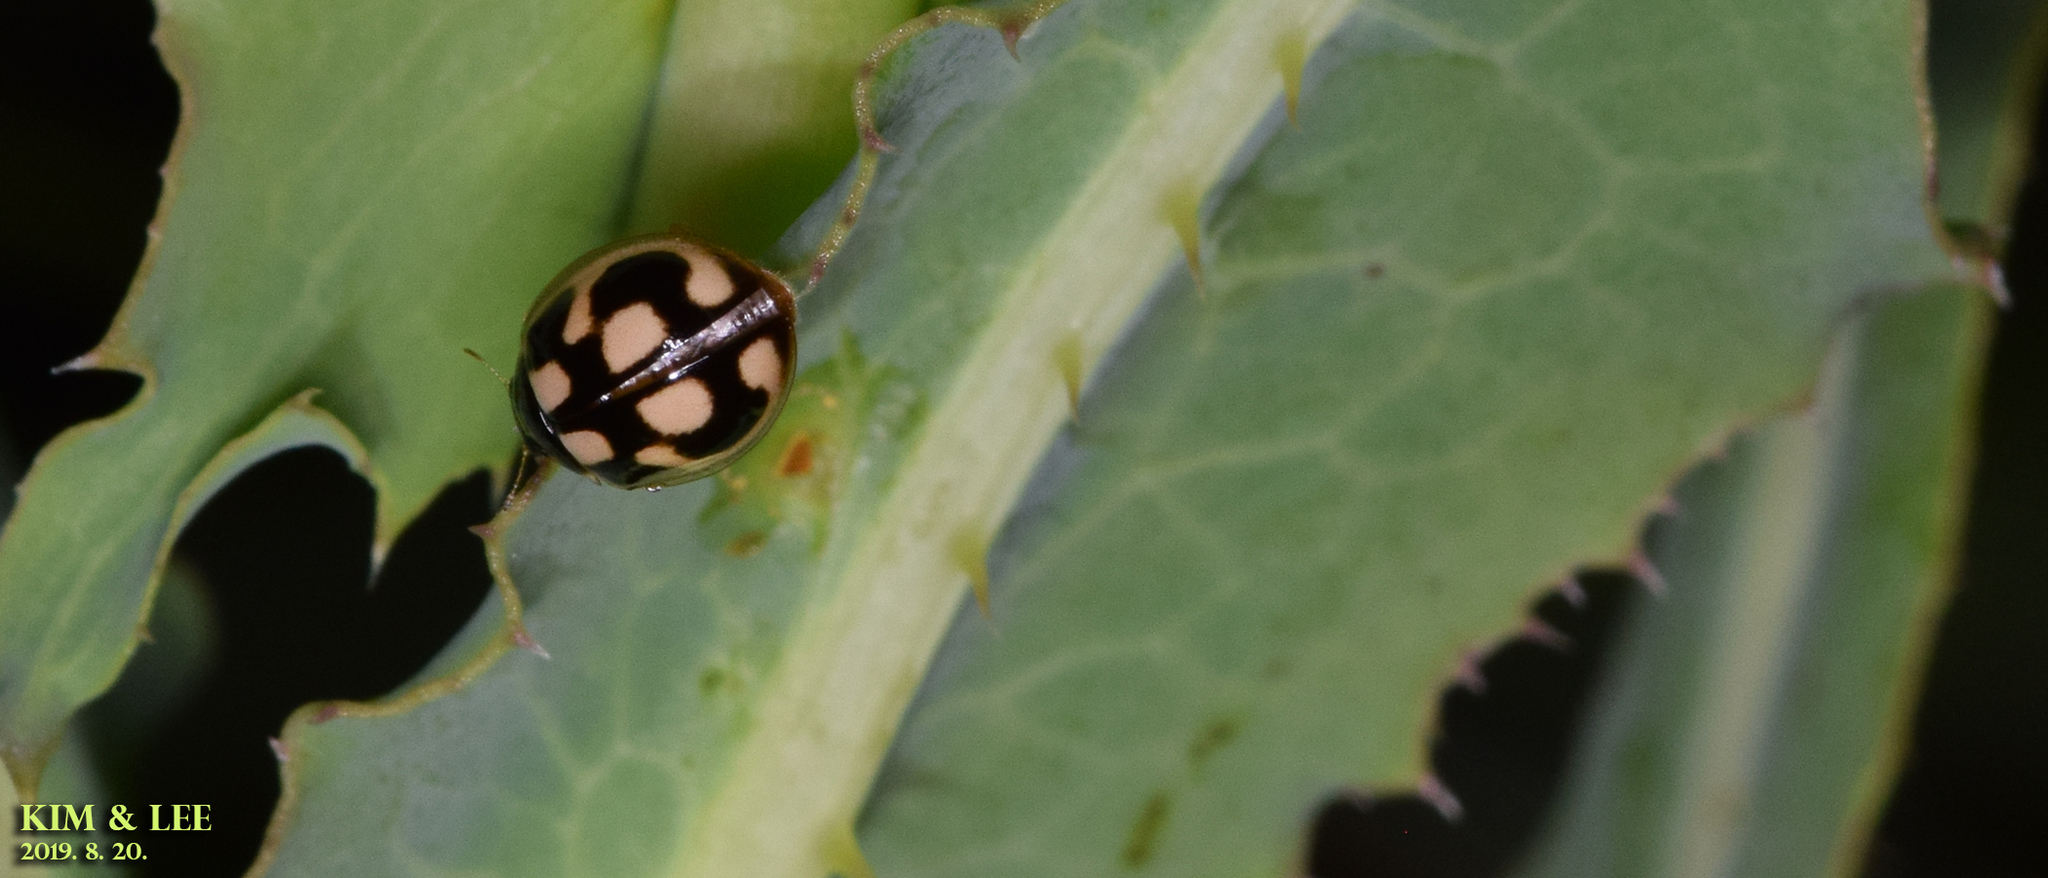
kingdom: Animalia
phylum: Arthropoda
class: Insecta
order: Coleoptera
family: Coccinellidae
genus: Propylea
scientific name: Propylea japonica
